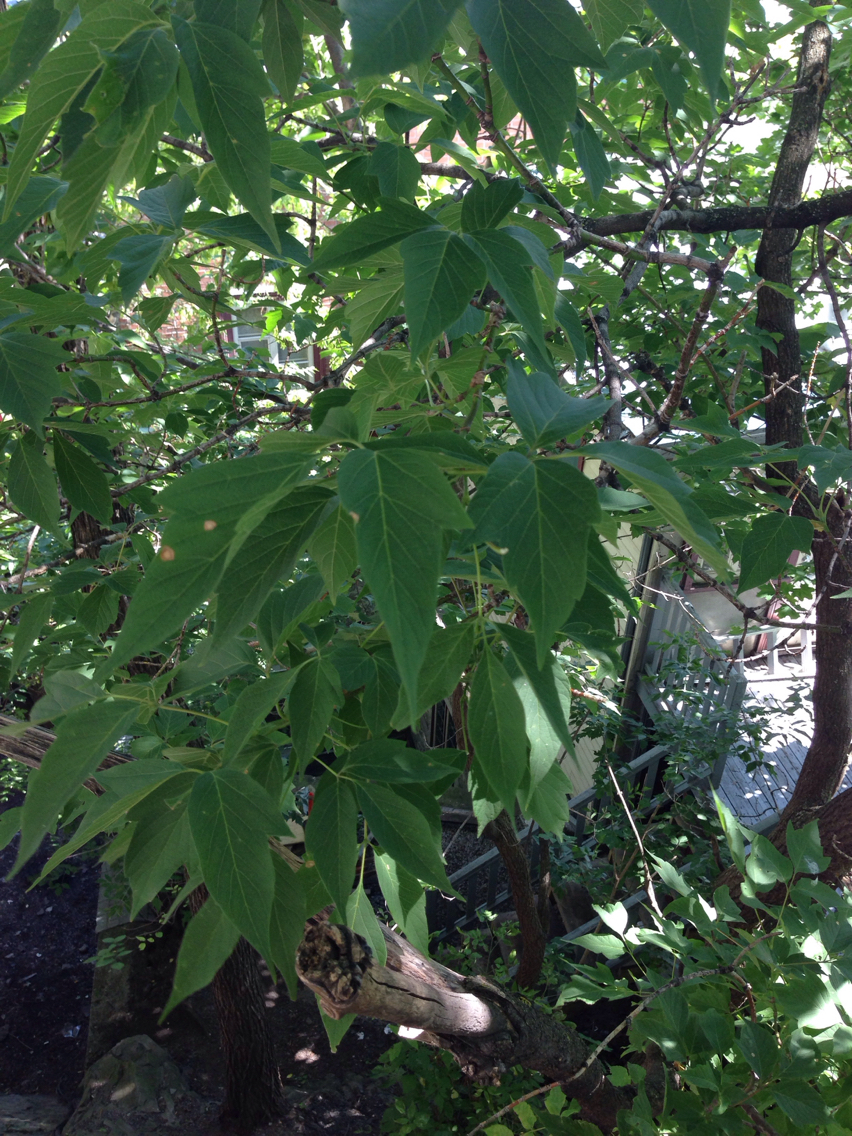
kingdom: Plantae
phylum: Tracheophyta
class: Magnoliopsida
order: Sapindales
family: Sapindaceae
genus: Acer
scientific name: Acer negundo
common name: Ashleaf maple
